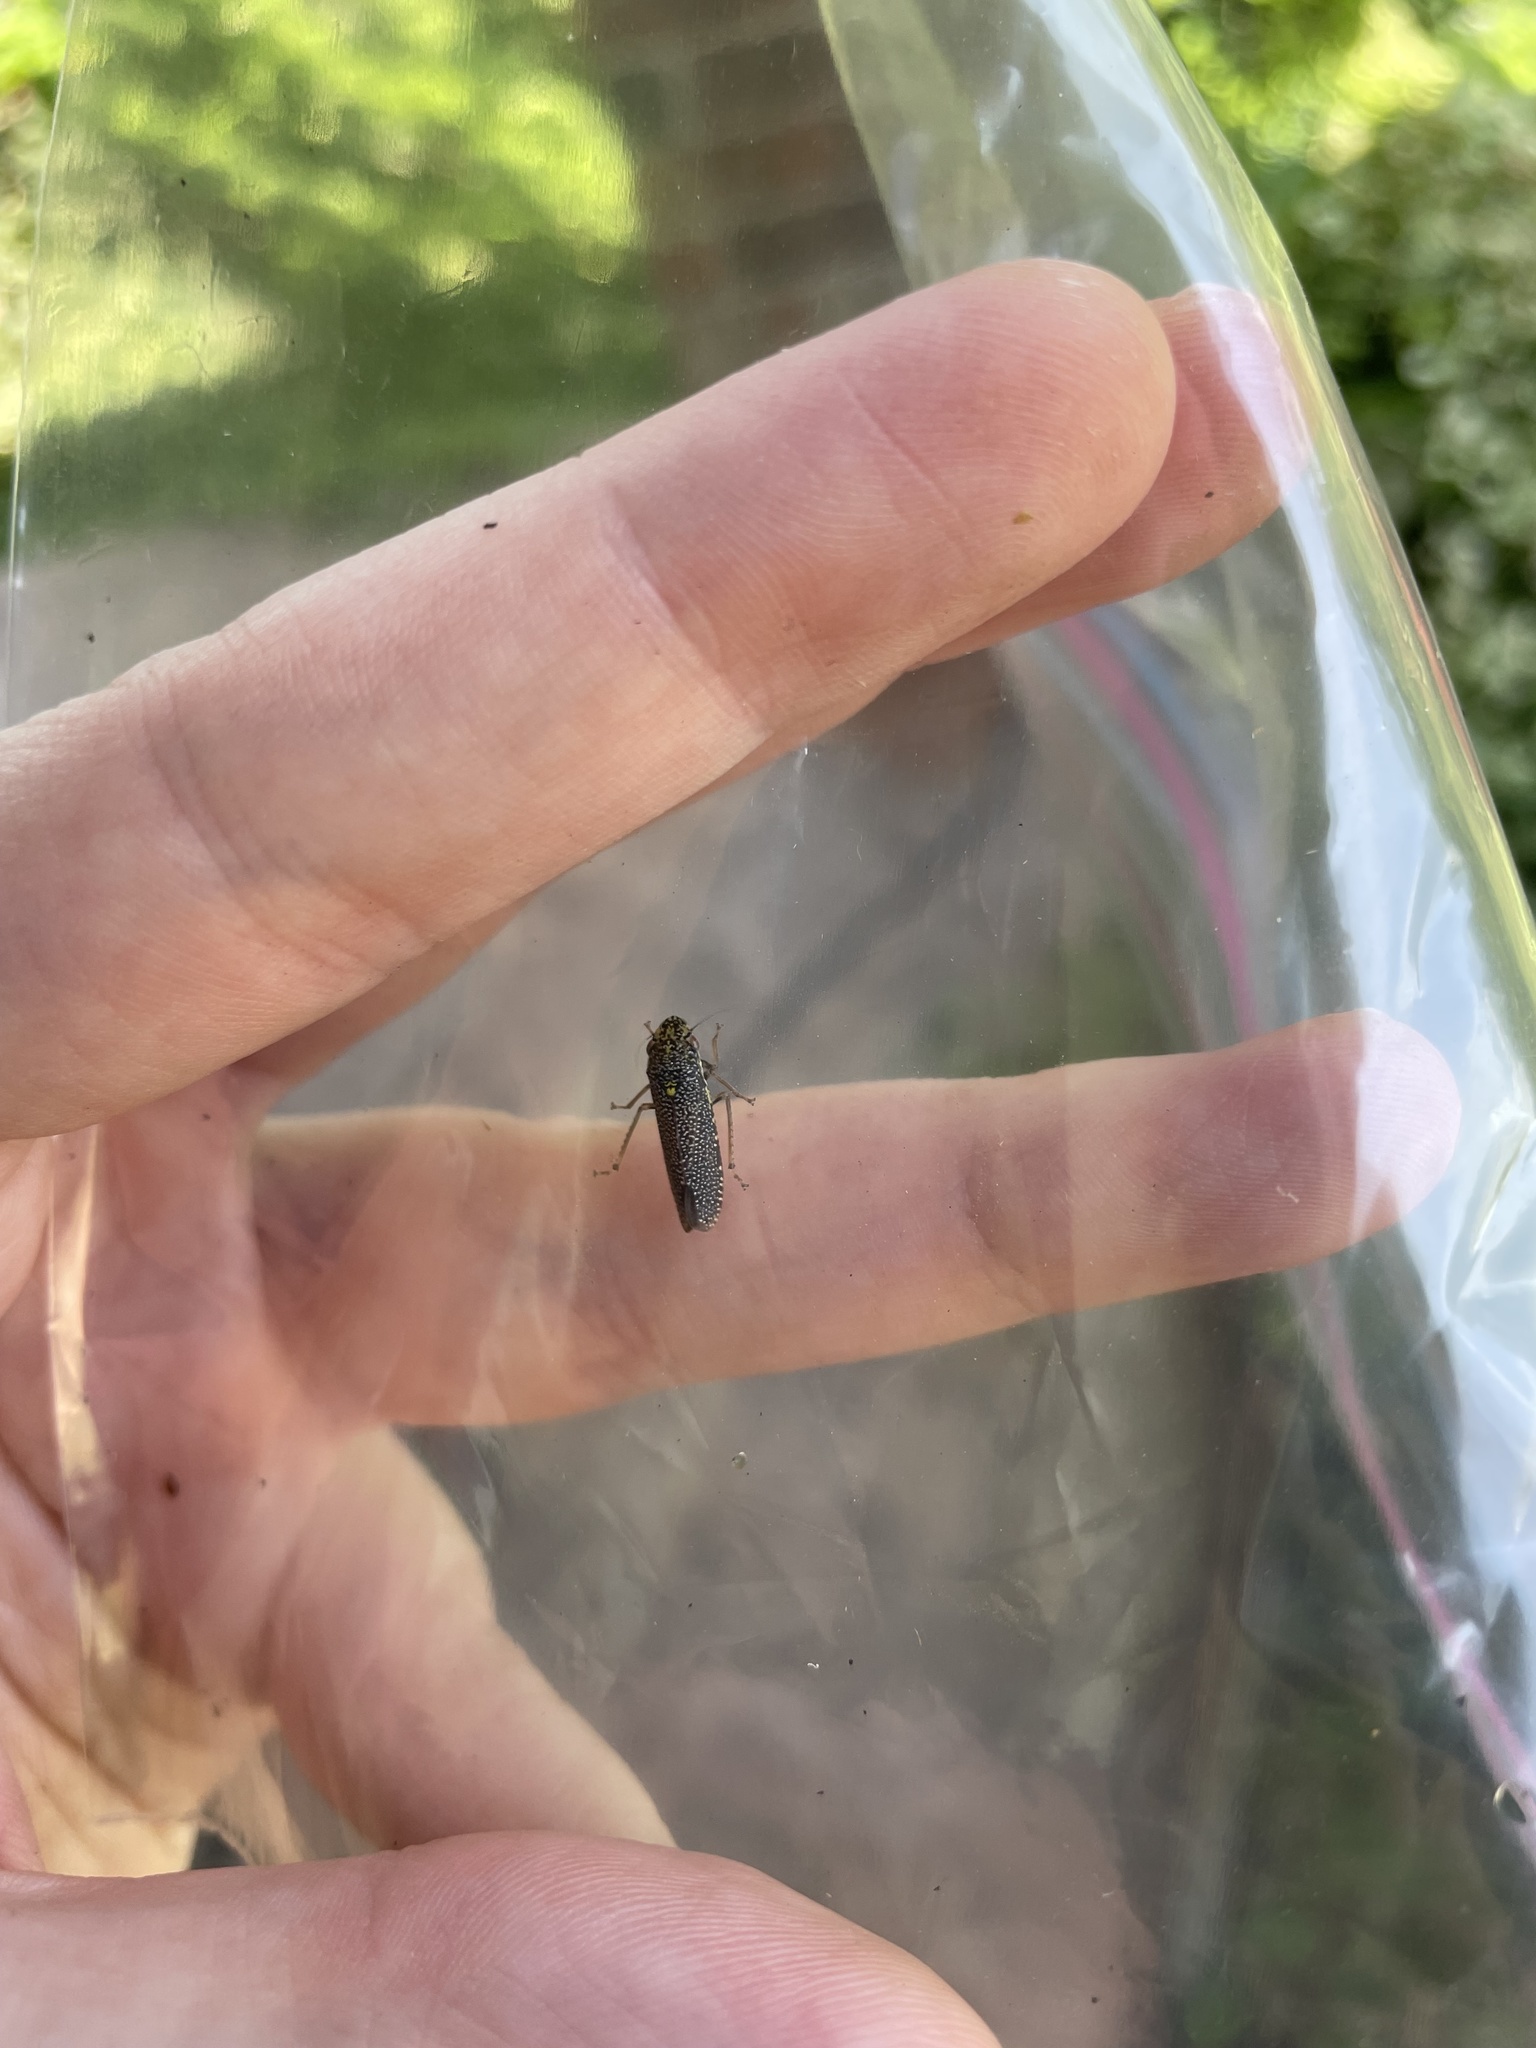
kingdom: Animalia
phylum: Arthropoda
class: Insecta
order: Hemiptera
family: Cicadellidae
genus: Paraulacizes
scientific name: Paraulacizes irrorata
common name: Speckled sharpshooter
